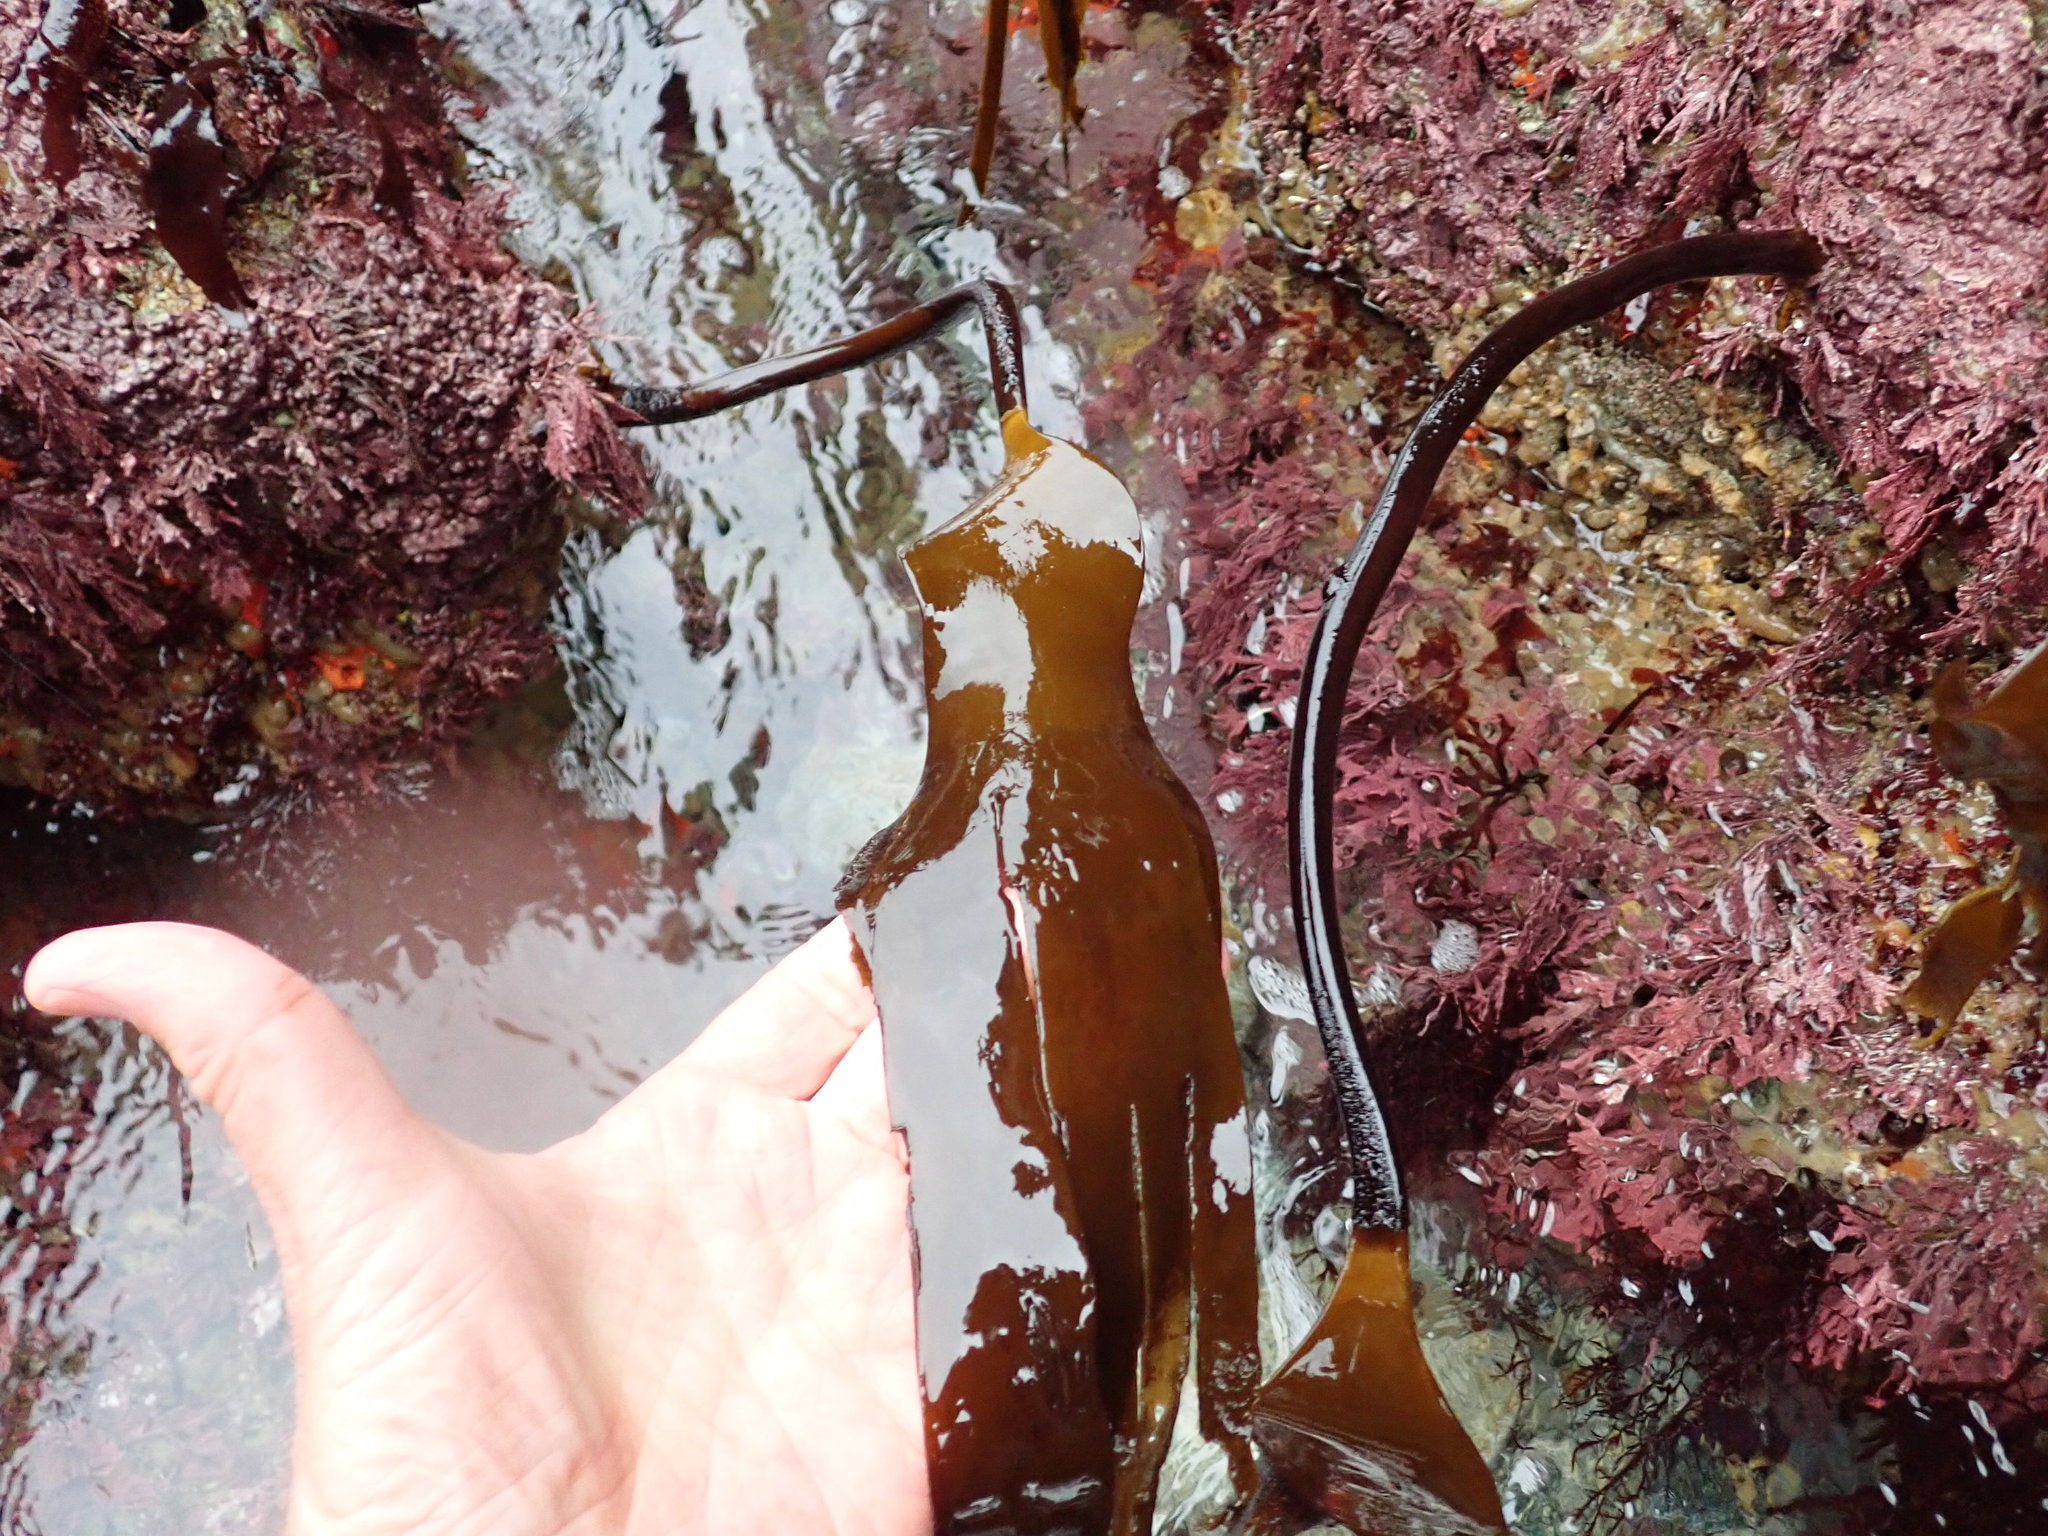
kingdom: Chromista
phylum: Ochrophyta
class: Phaeophyceae
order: Laminariales
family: Laminariaceae
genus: Laminaria
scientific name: Laminaria setchellii
